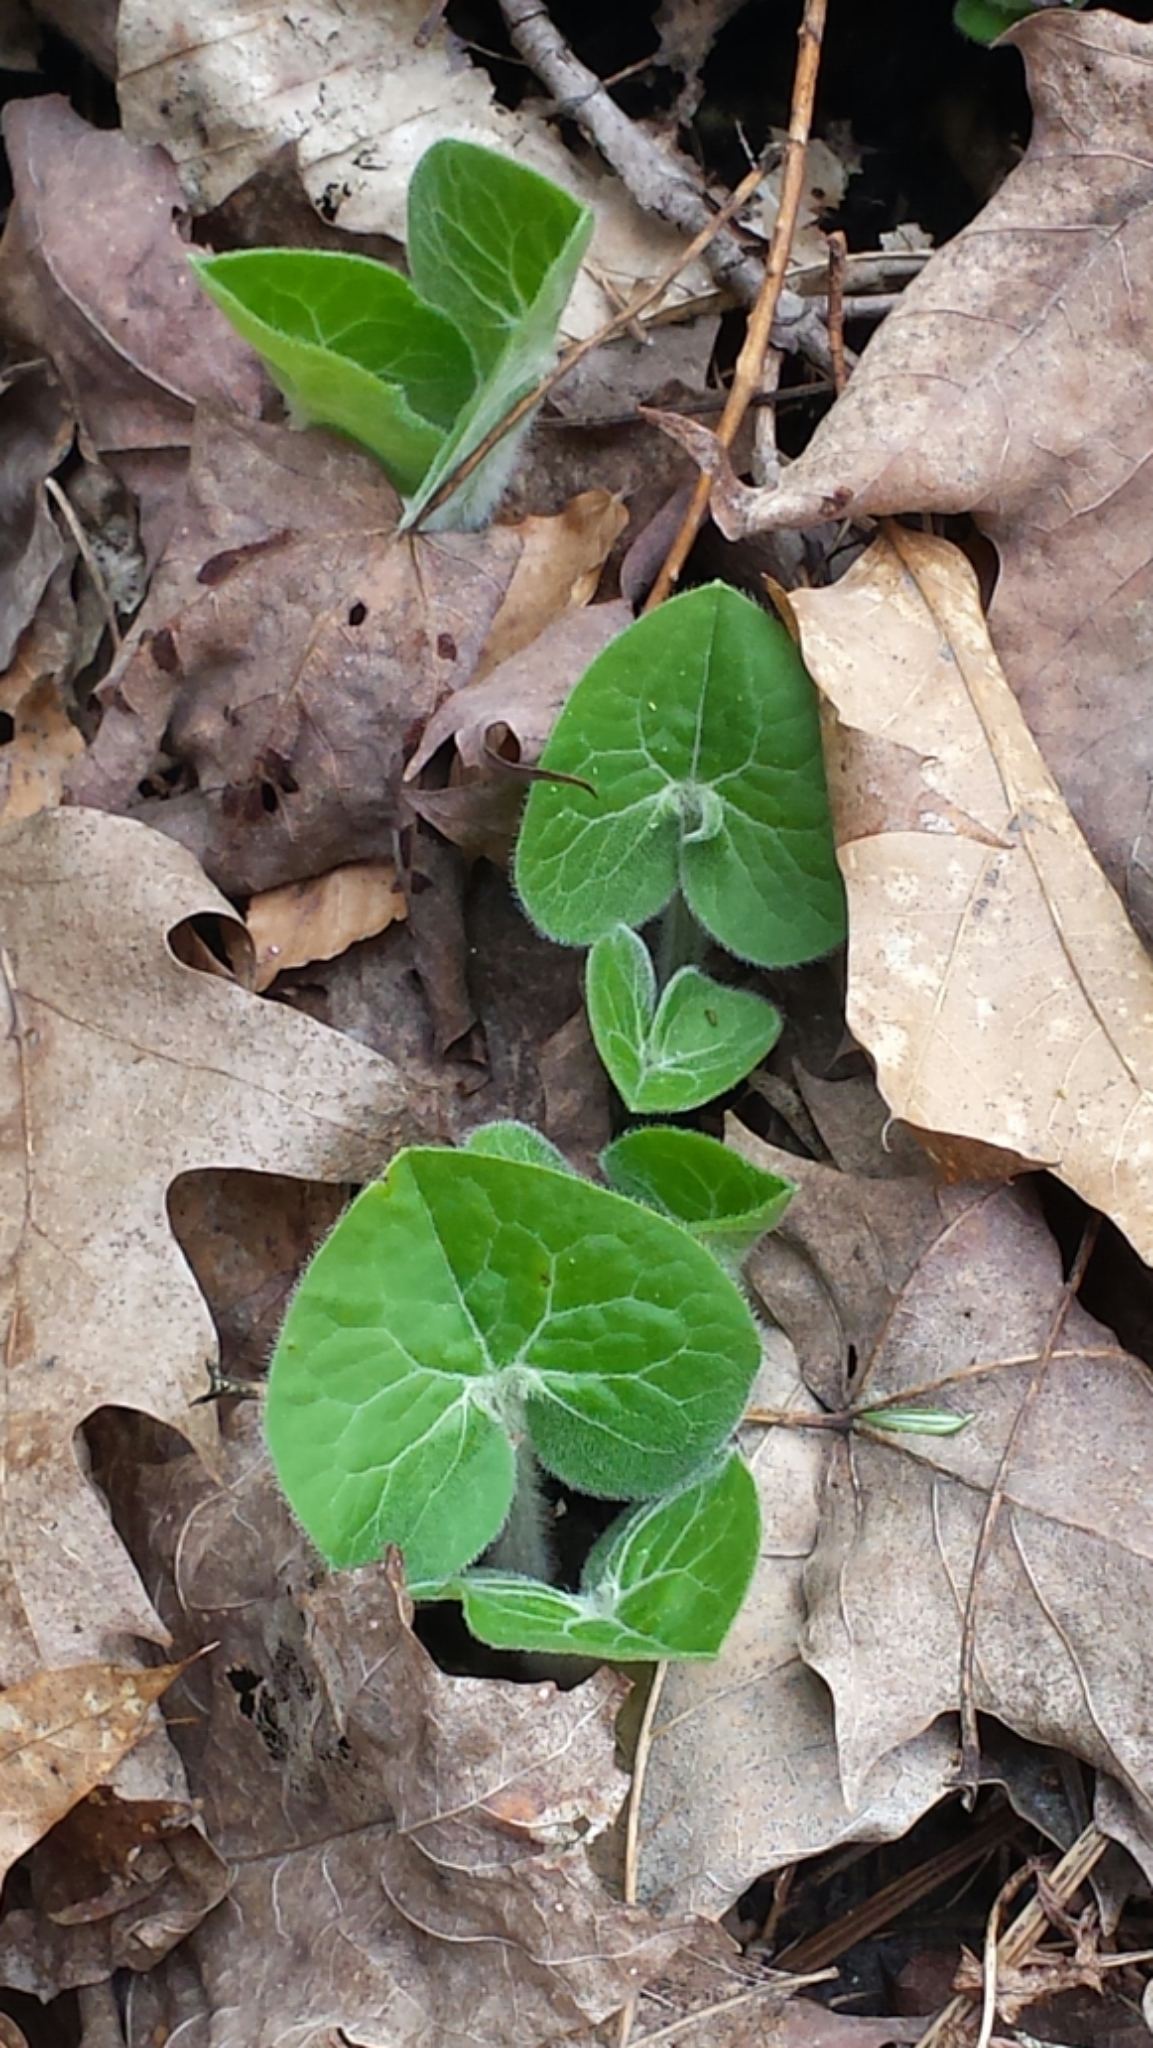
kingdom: Plantae
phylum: Tracheophyta
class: Magnoliopsida
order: Piperales
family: Aristolochiaceae
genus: Asarum
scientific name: Asarum canadense
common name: Wild ginger
